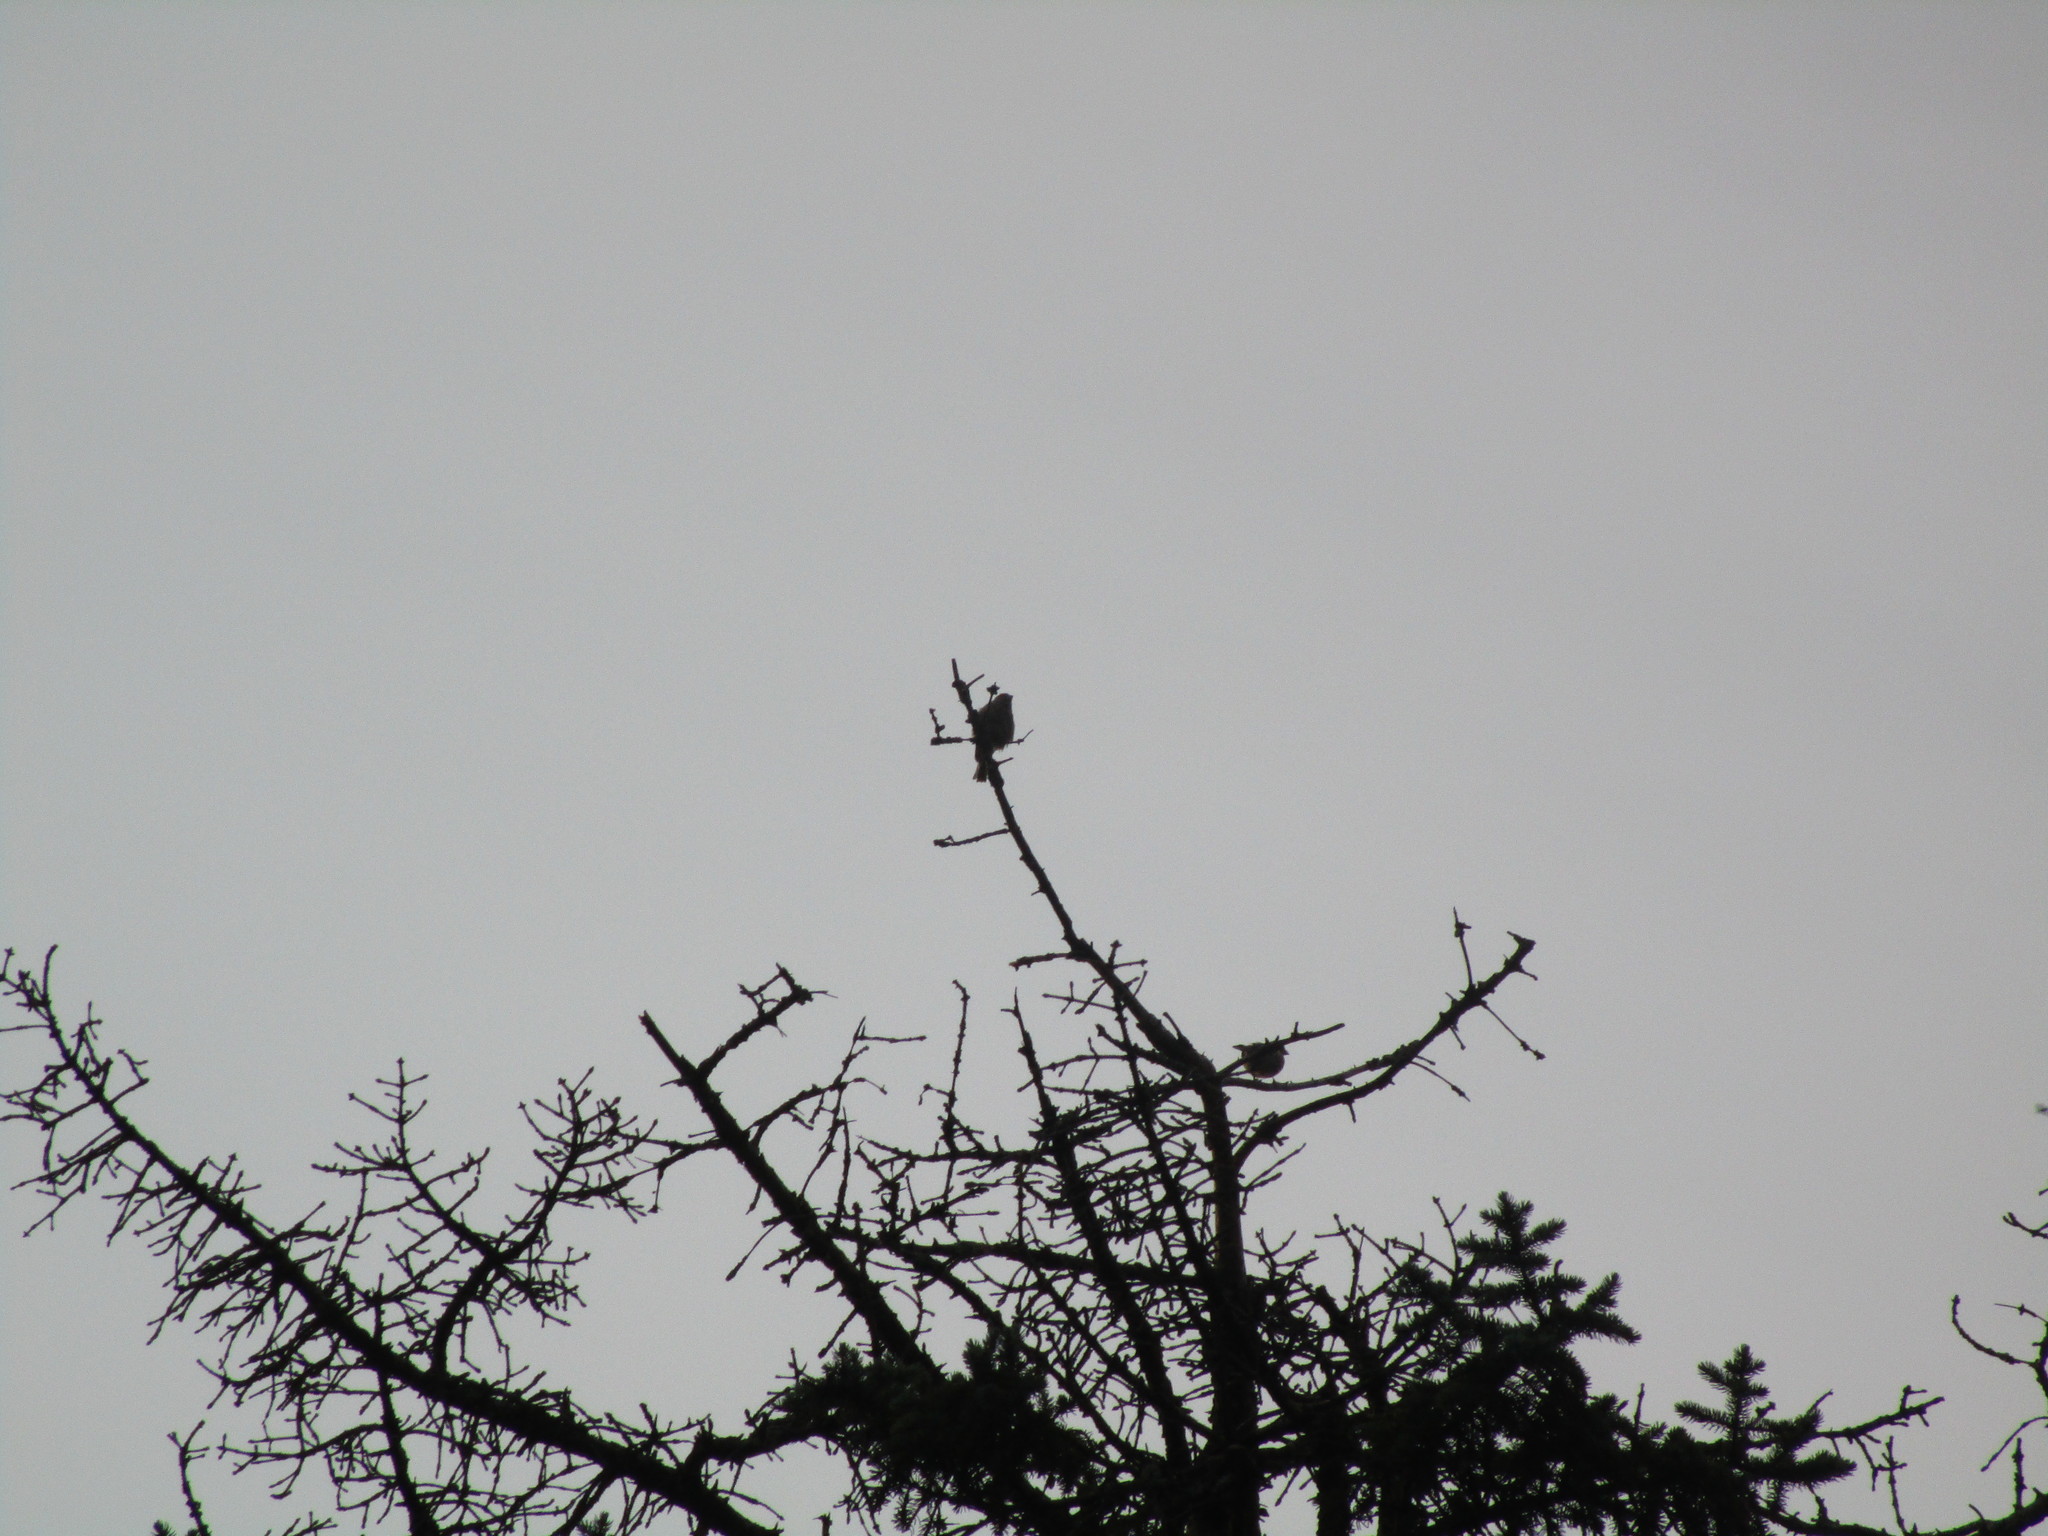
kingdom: Animalia
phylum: Chordata
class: Aves
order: Passeriformes
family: Passeridae
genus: Passer
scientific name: Passer domesticus
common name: House sparrow
